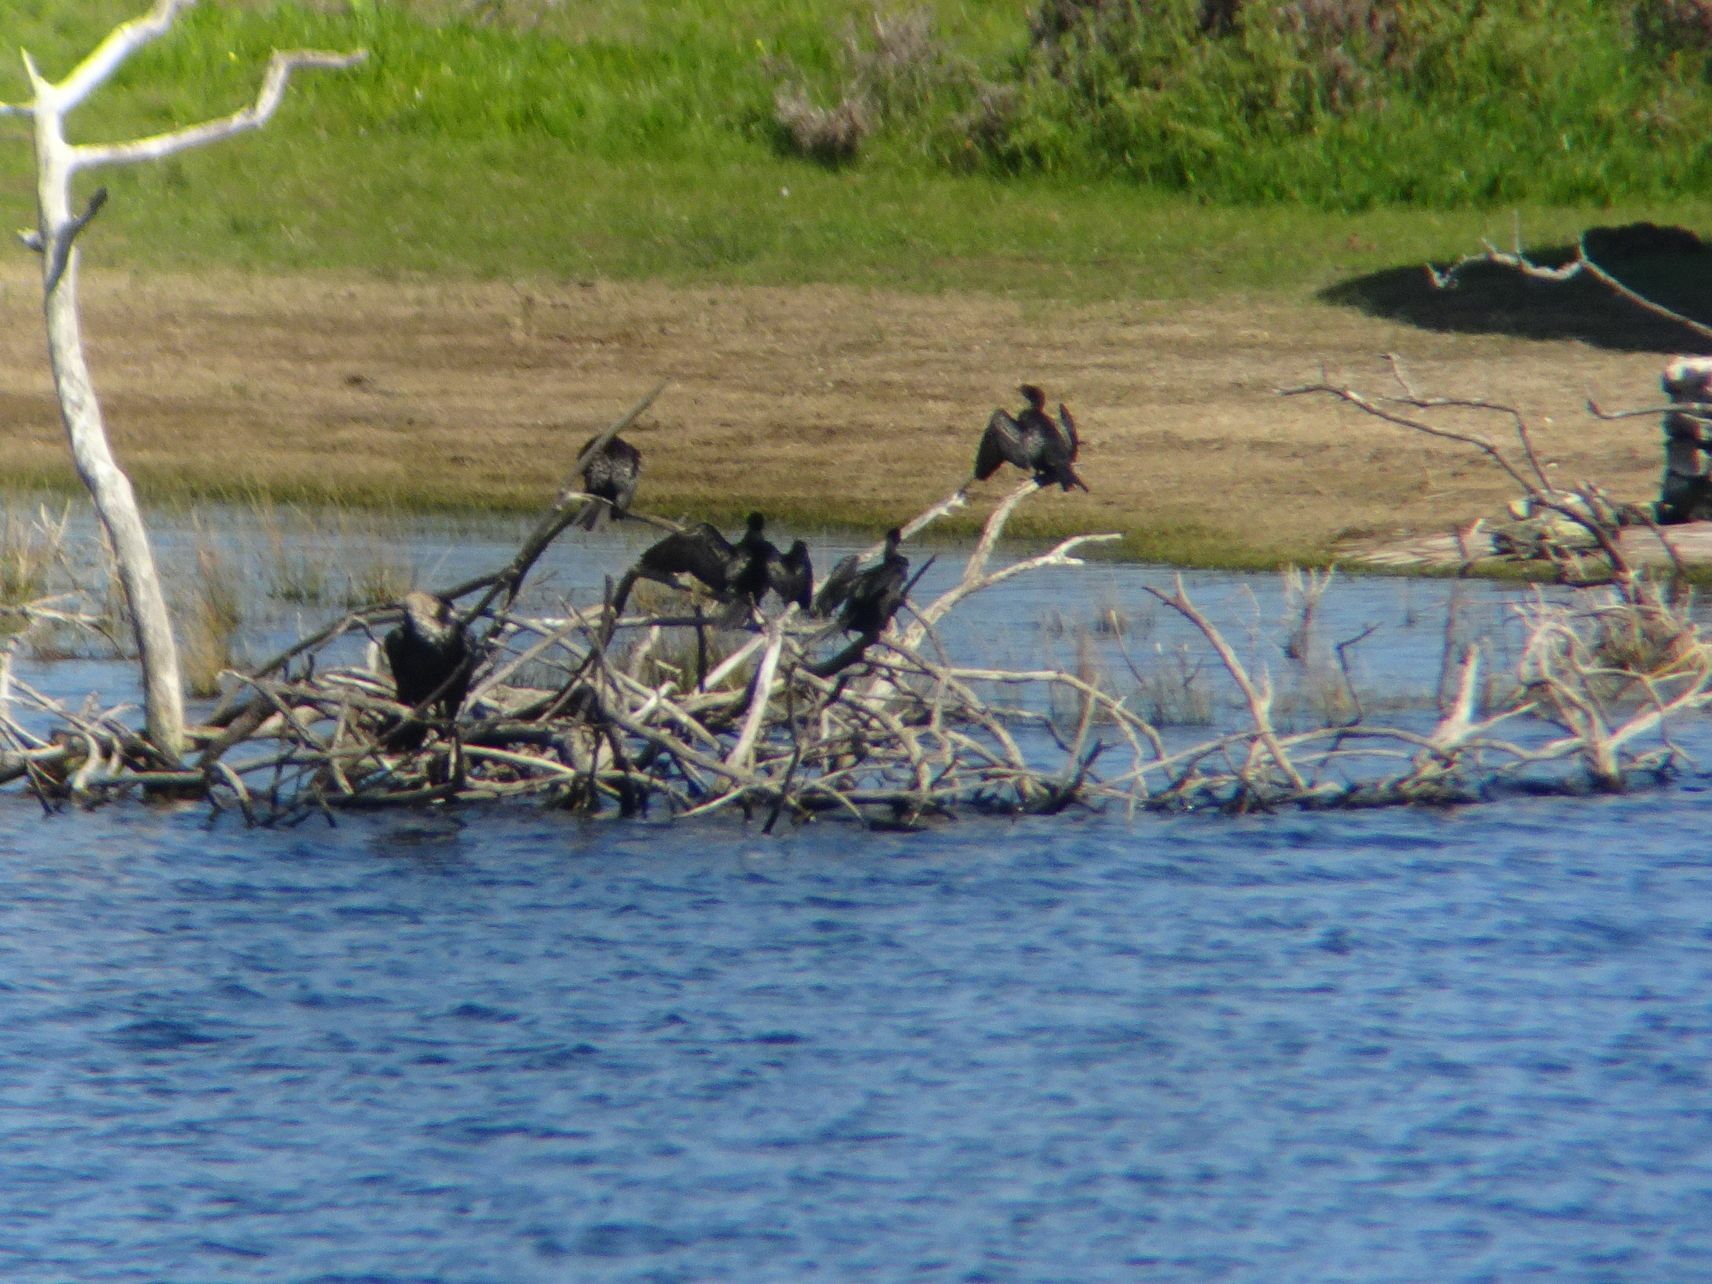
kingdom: Animalia
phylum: Chordata
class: Aves
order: Suliformes
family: Phalacrocoracidae
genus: Microcarbo
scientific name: Microcarbo africanus
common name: Long-tailed cormorant
